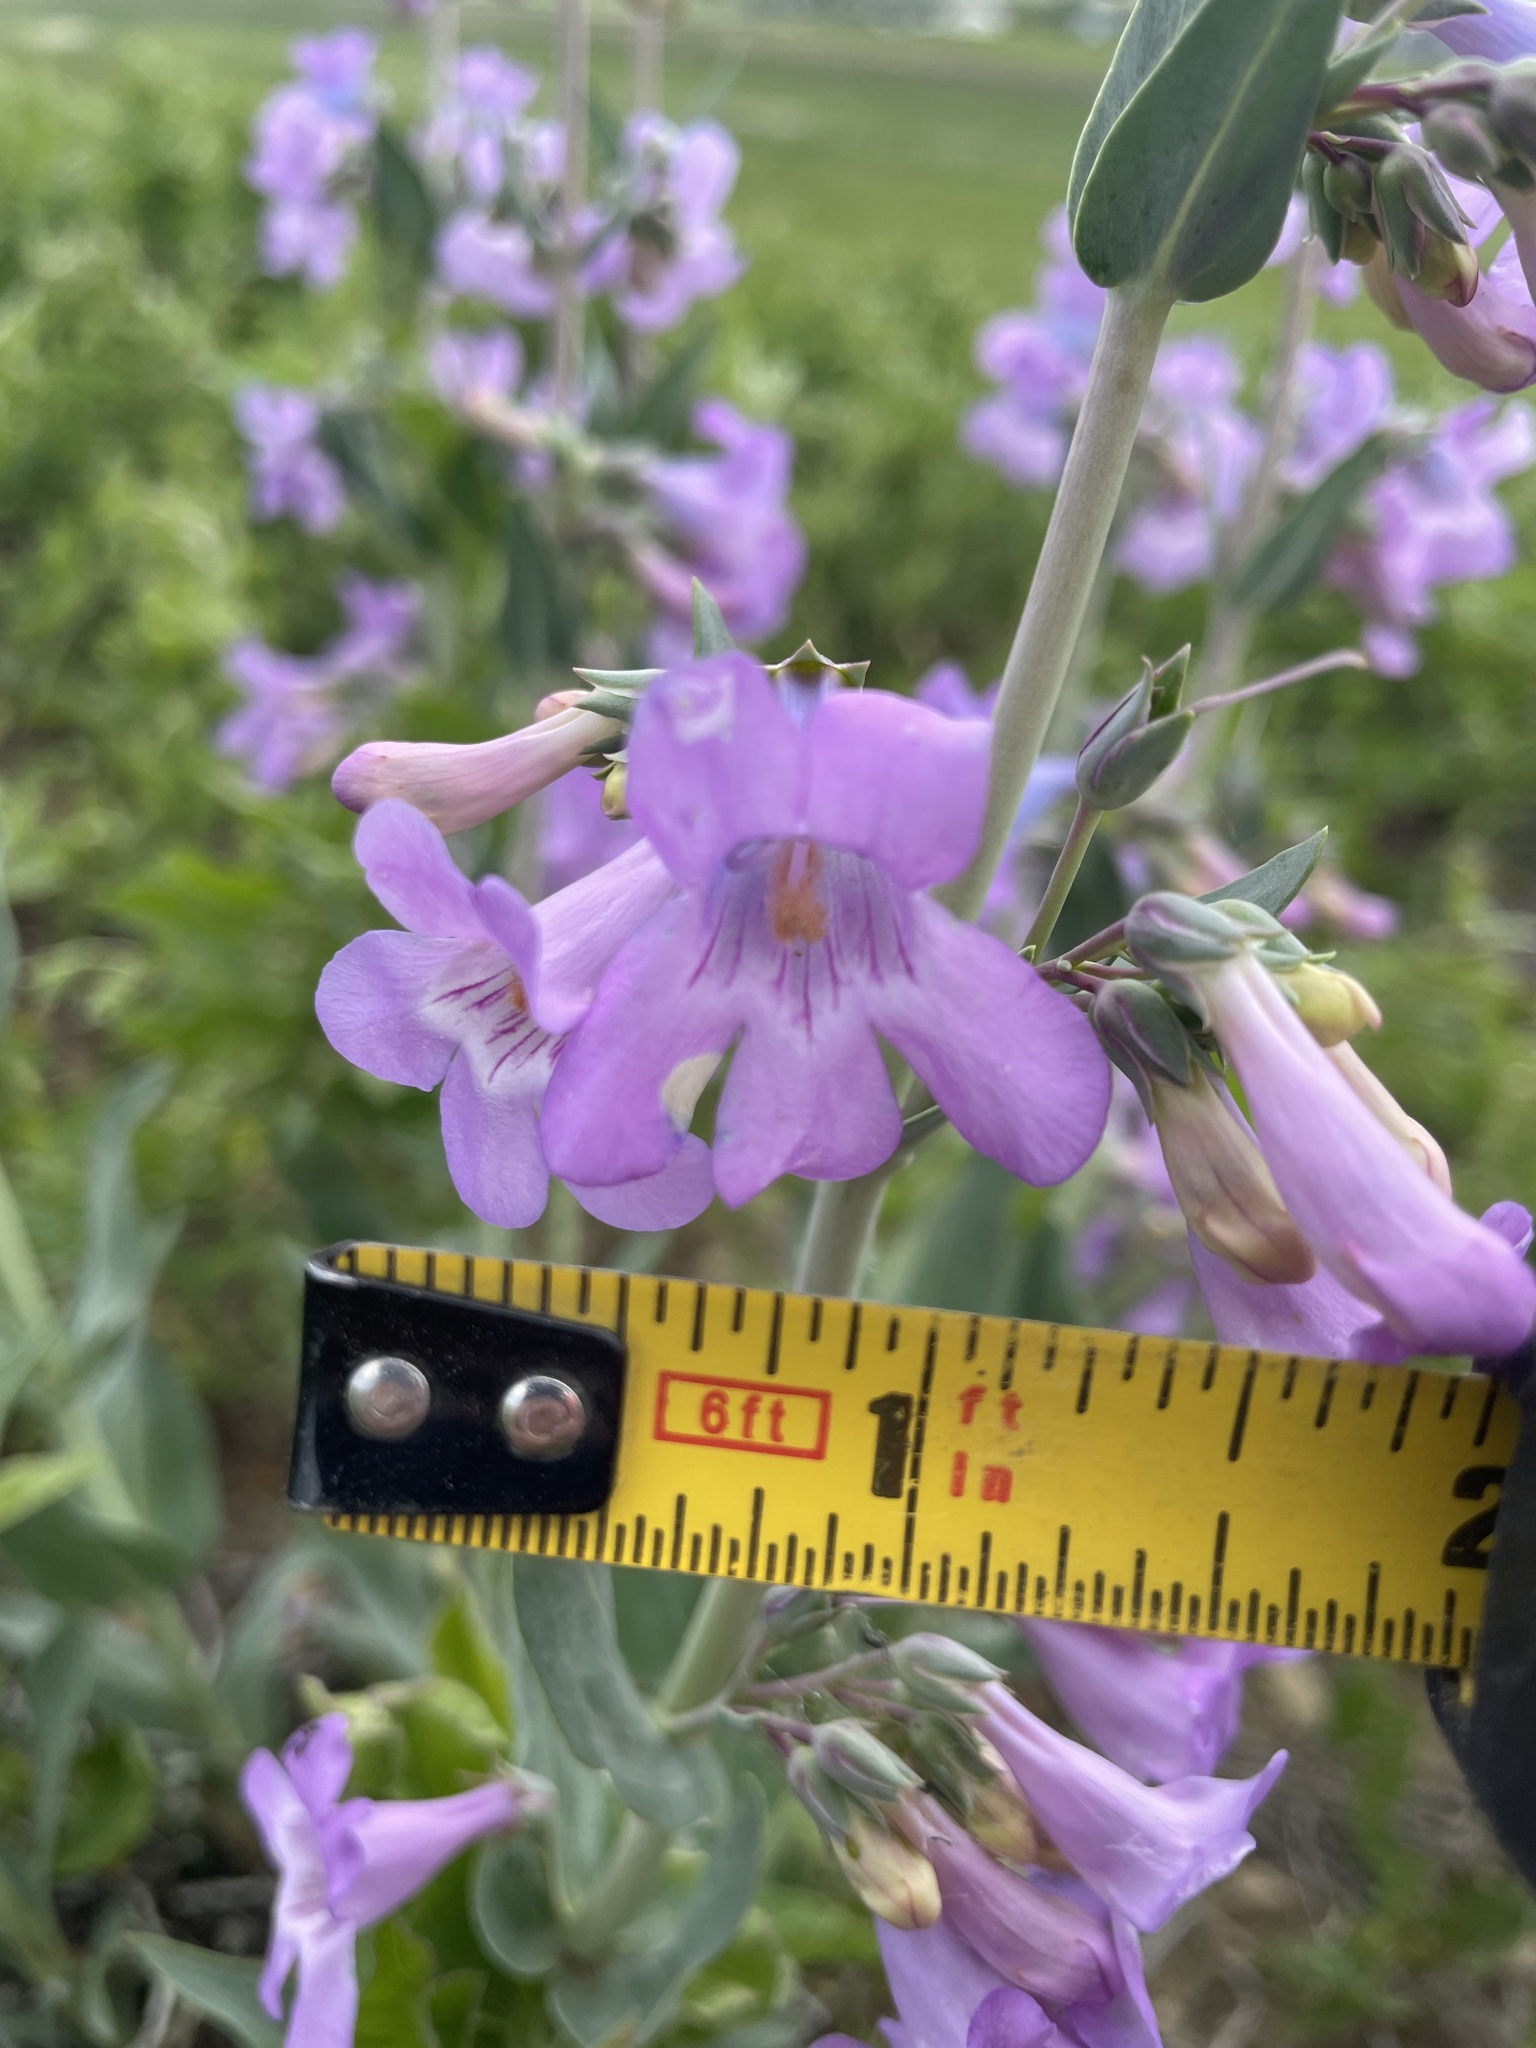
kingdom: Plantae
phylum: Tracheophyta
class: Magnoliopsida
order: Lamiales
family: Plantaginaceae
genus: Penstemon
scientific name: Penstemon secundiflorus
